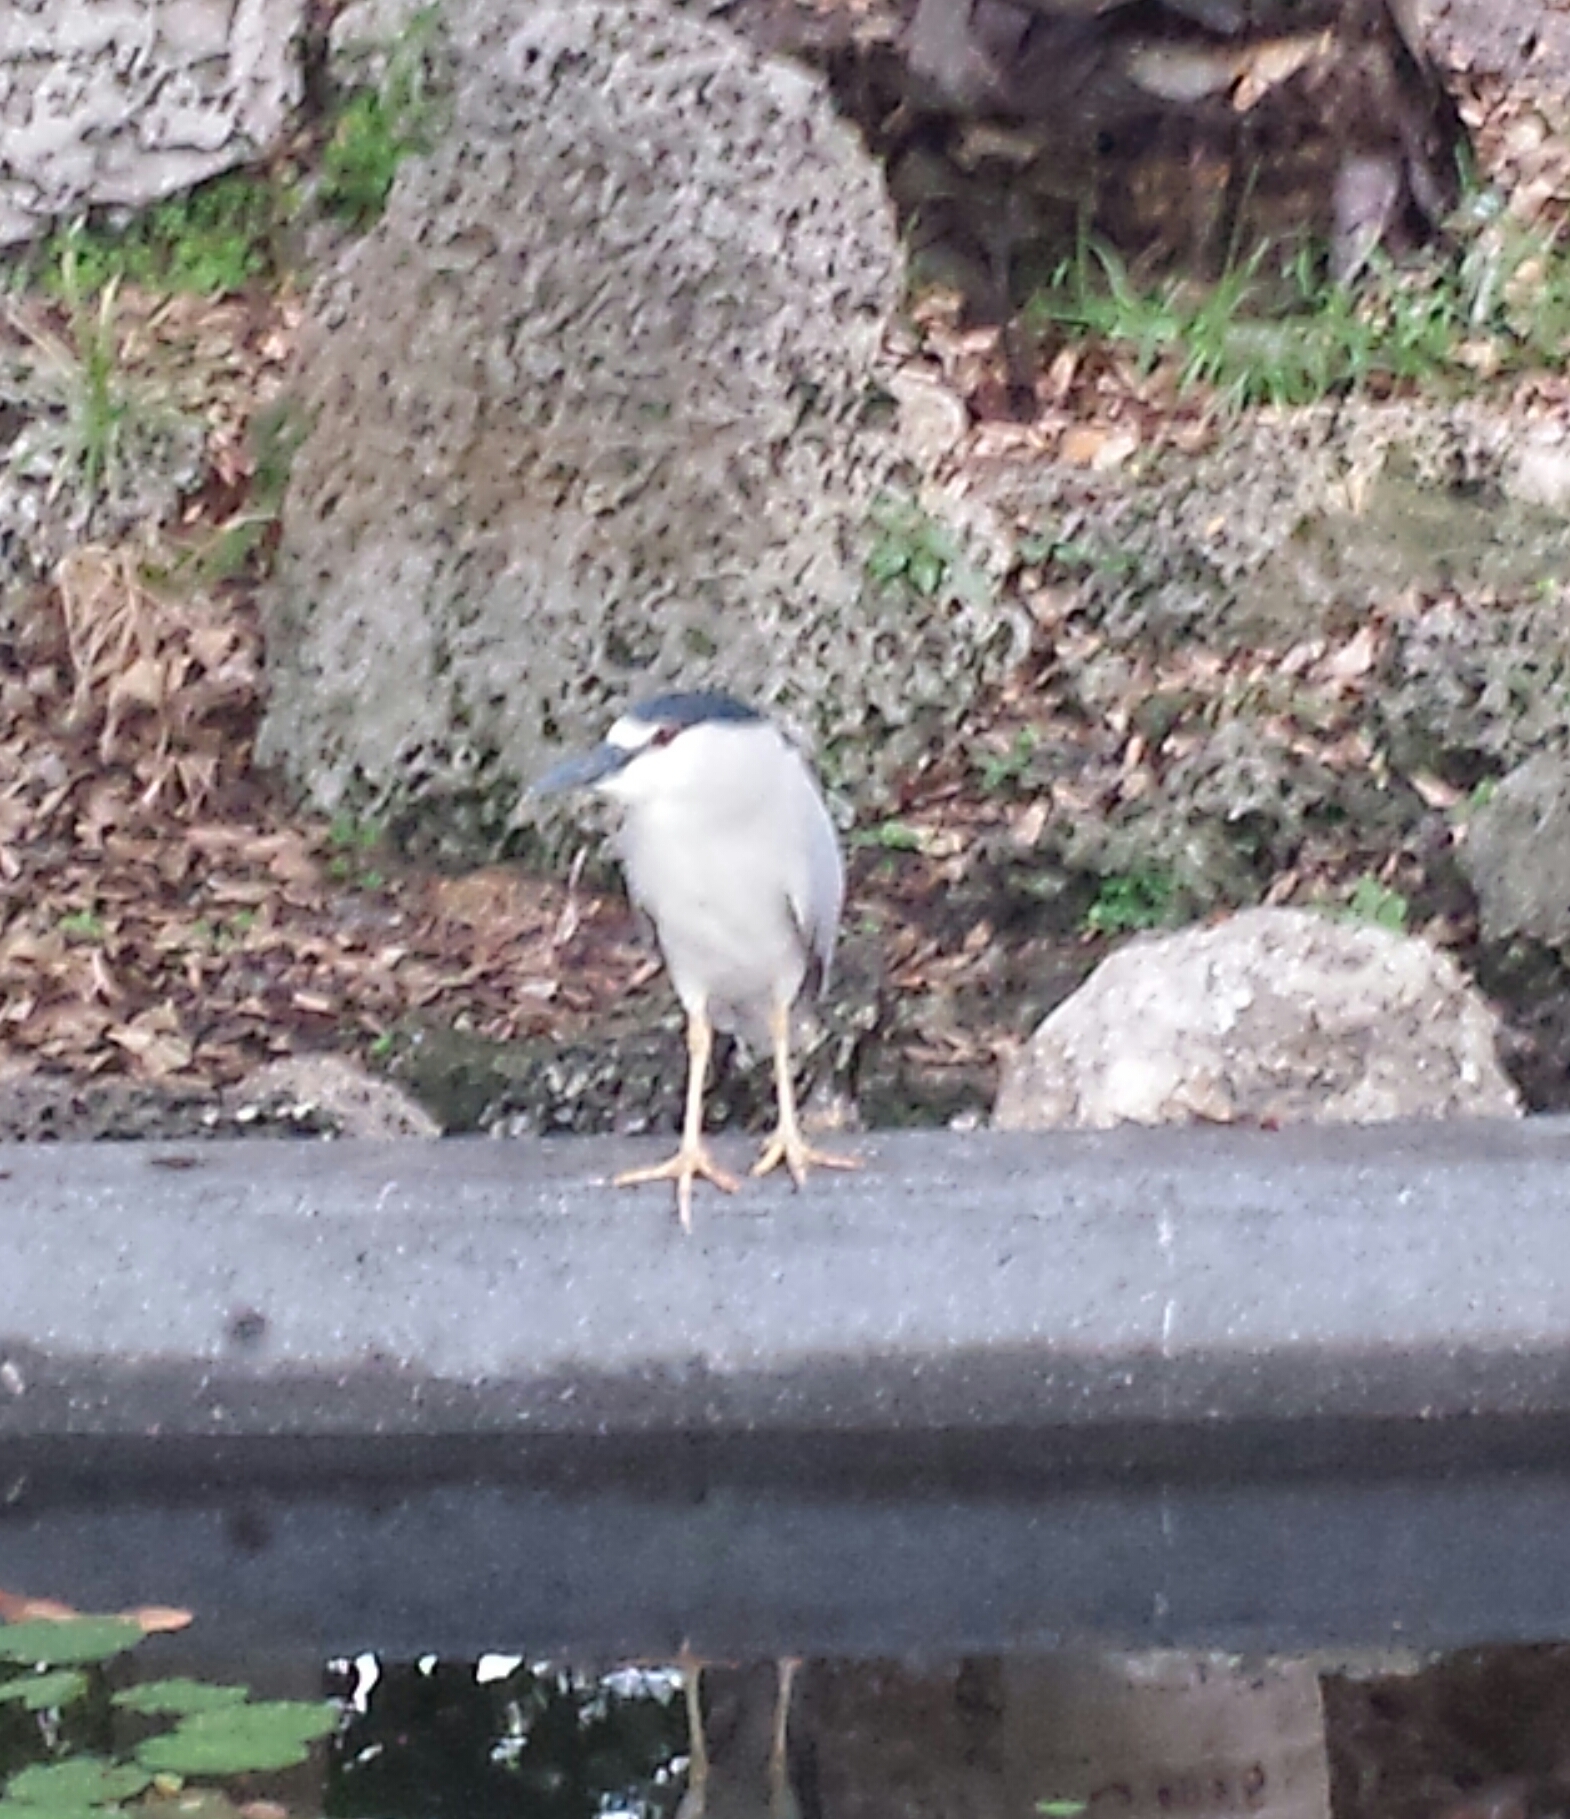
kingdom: Animalia
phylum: Chordata
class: Aves
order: Pelecaniformes
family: Ardeidae
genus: Nycticorax
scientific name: Nycticorax nycticorax
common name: Black-crowned night heron
